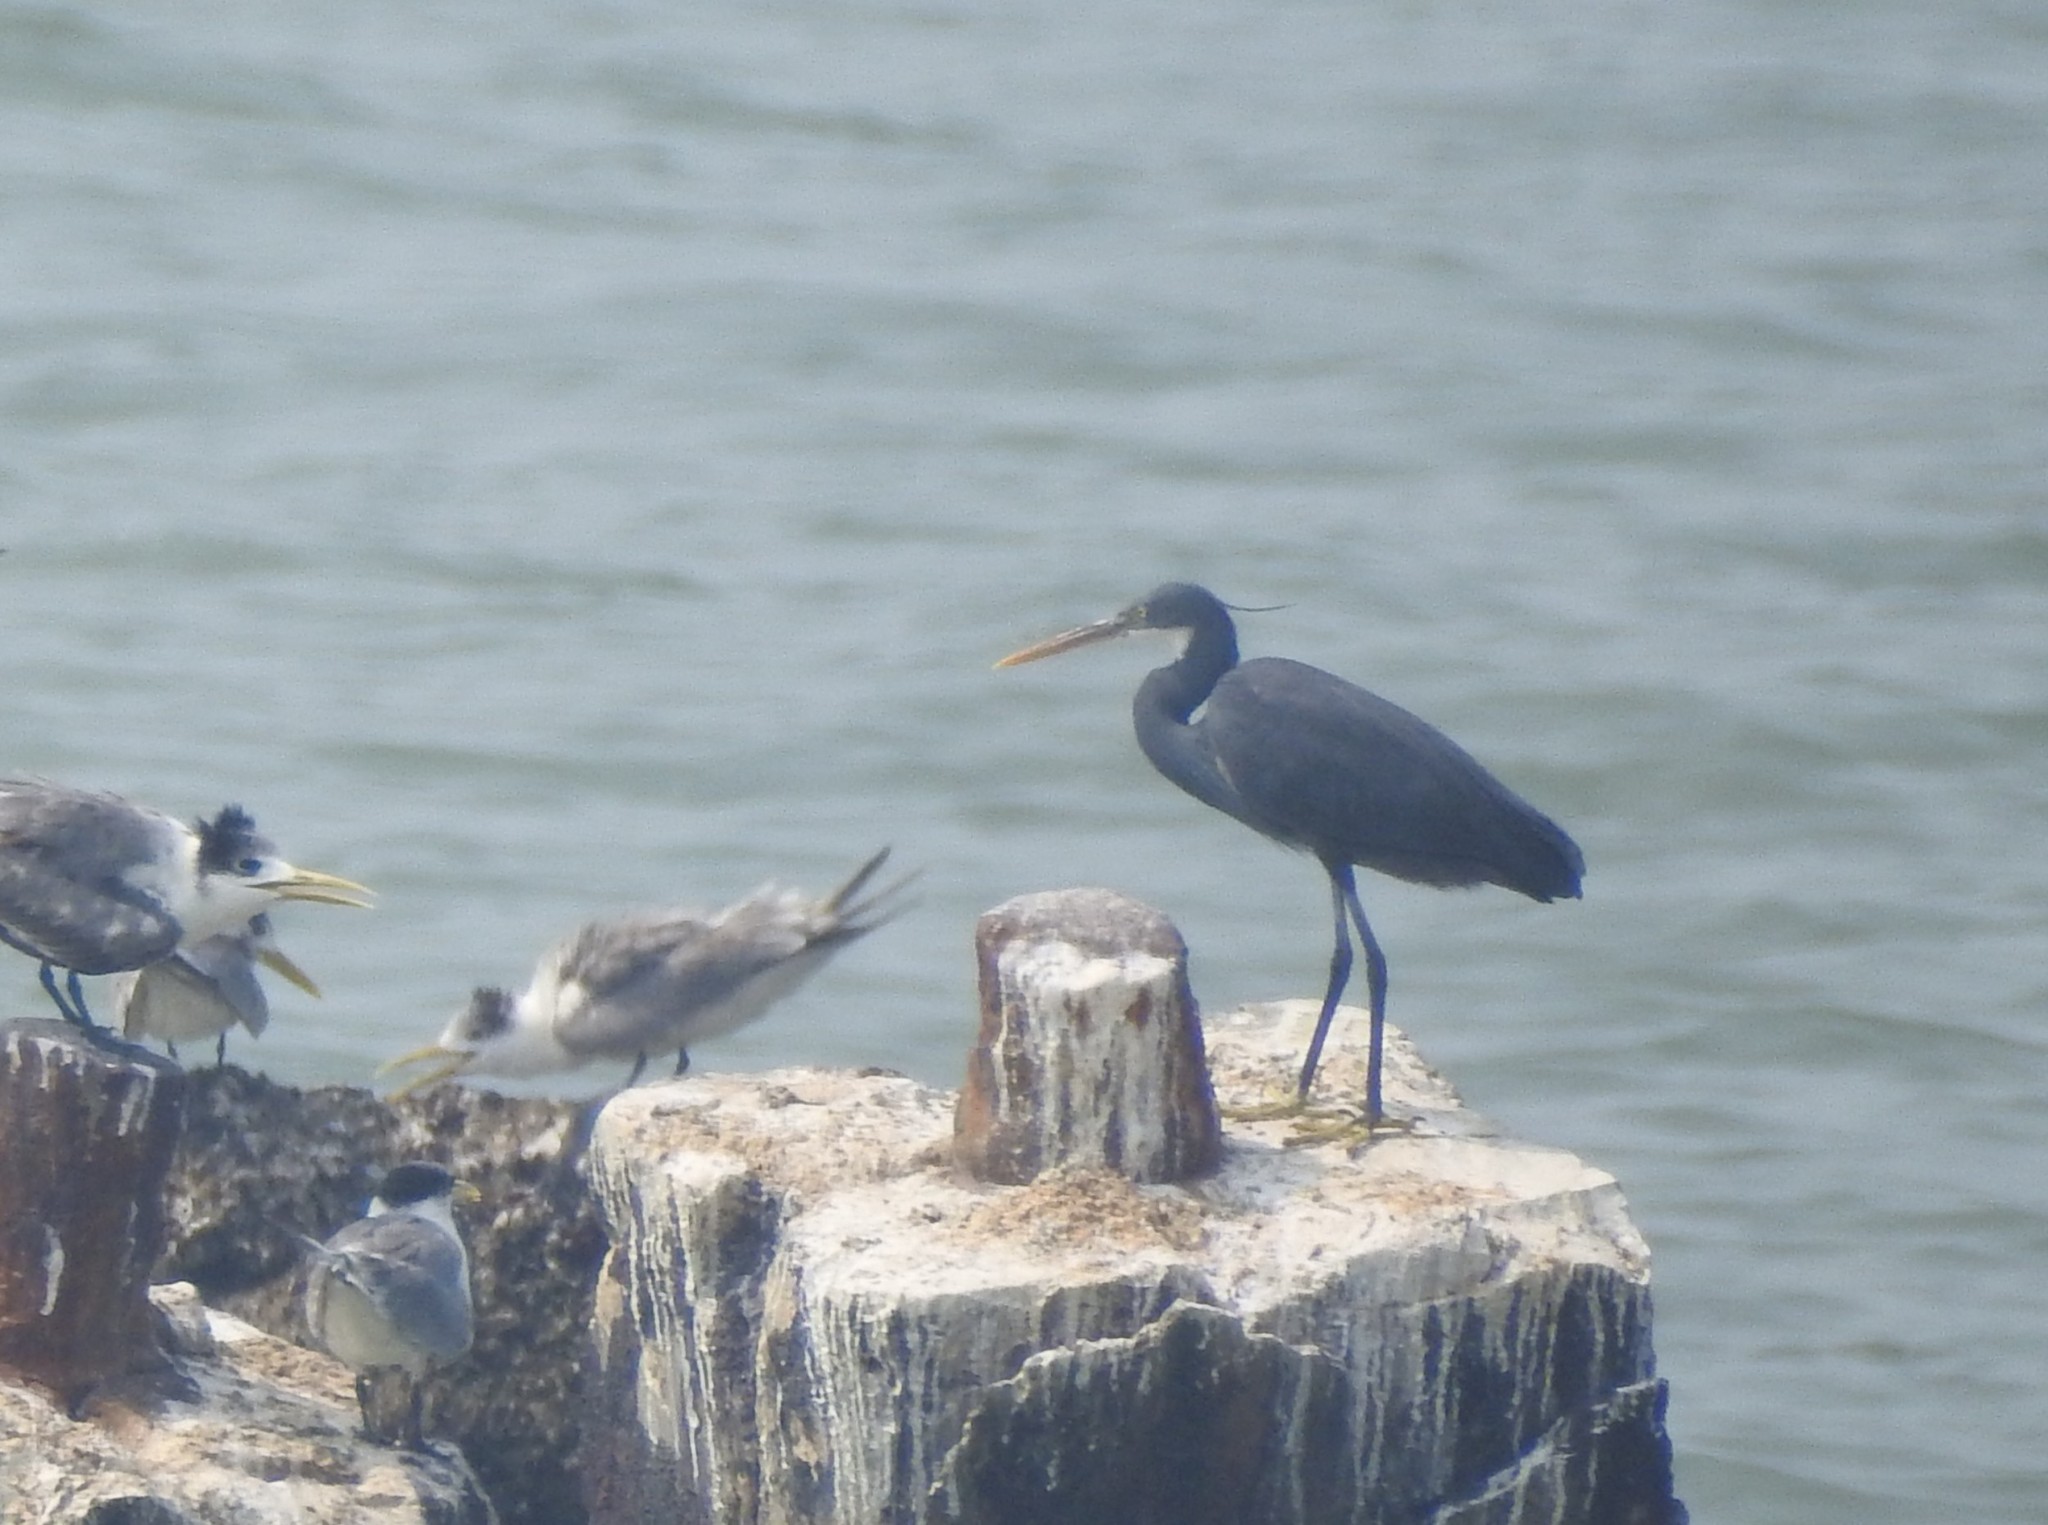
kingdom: Animalia
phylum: Chordata
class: Aves
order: Pelecaniformes
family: Ardeidae
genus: Egretta
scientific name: Egretta gularis
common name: Western reef-heron
